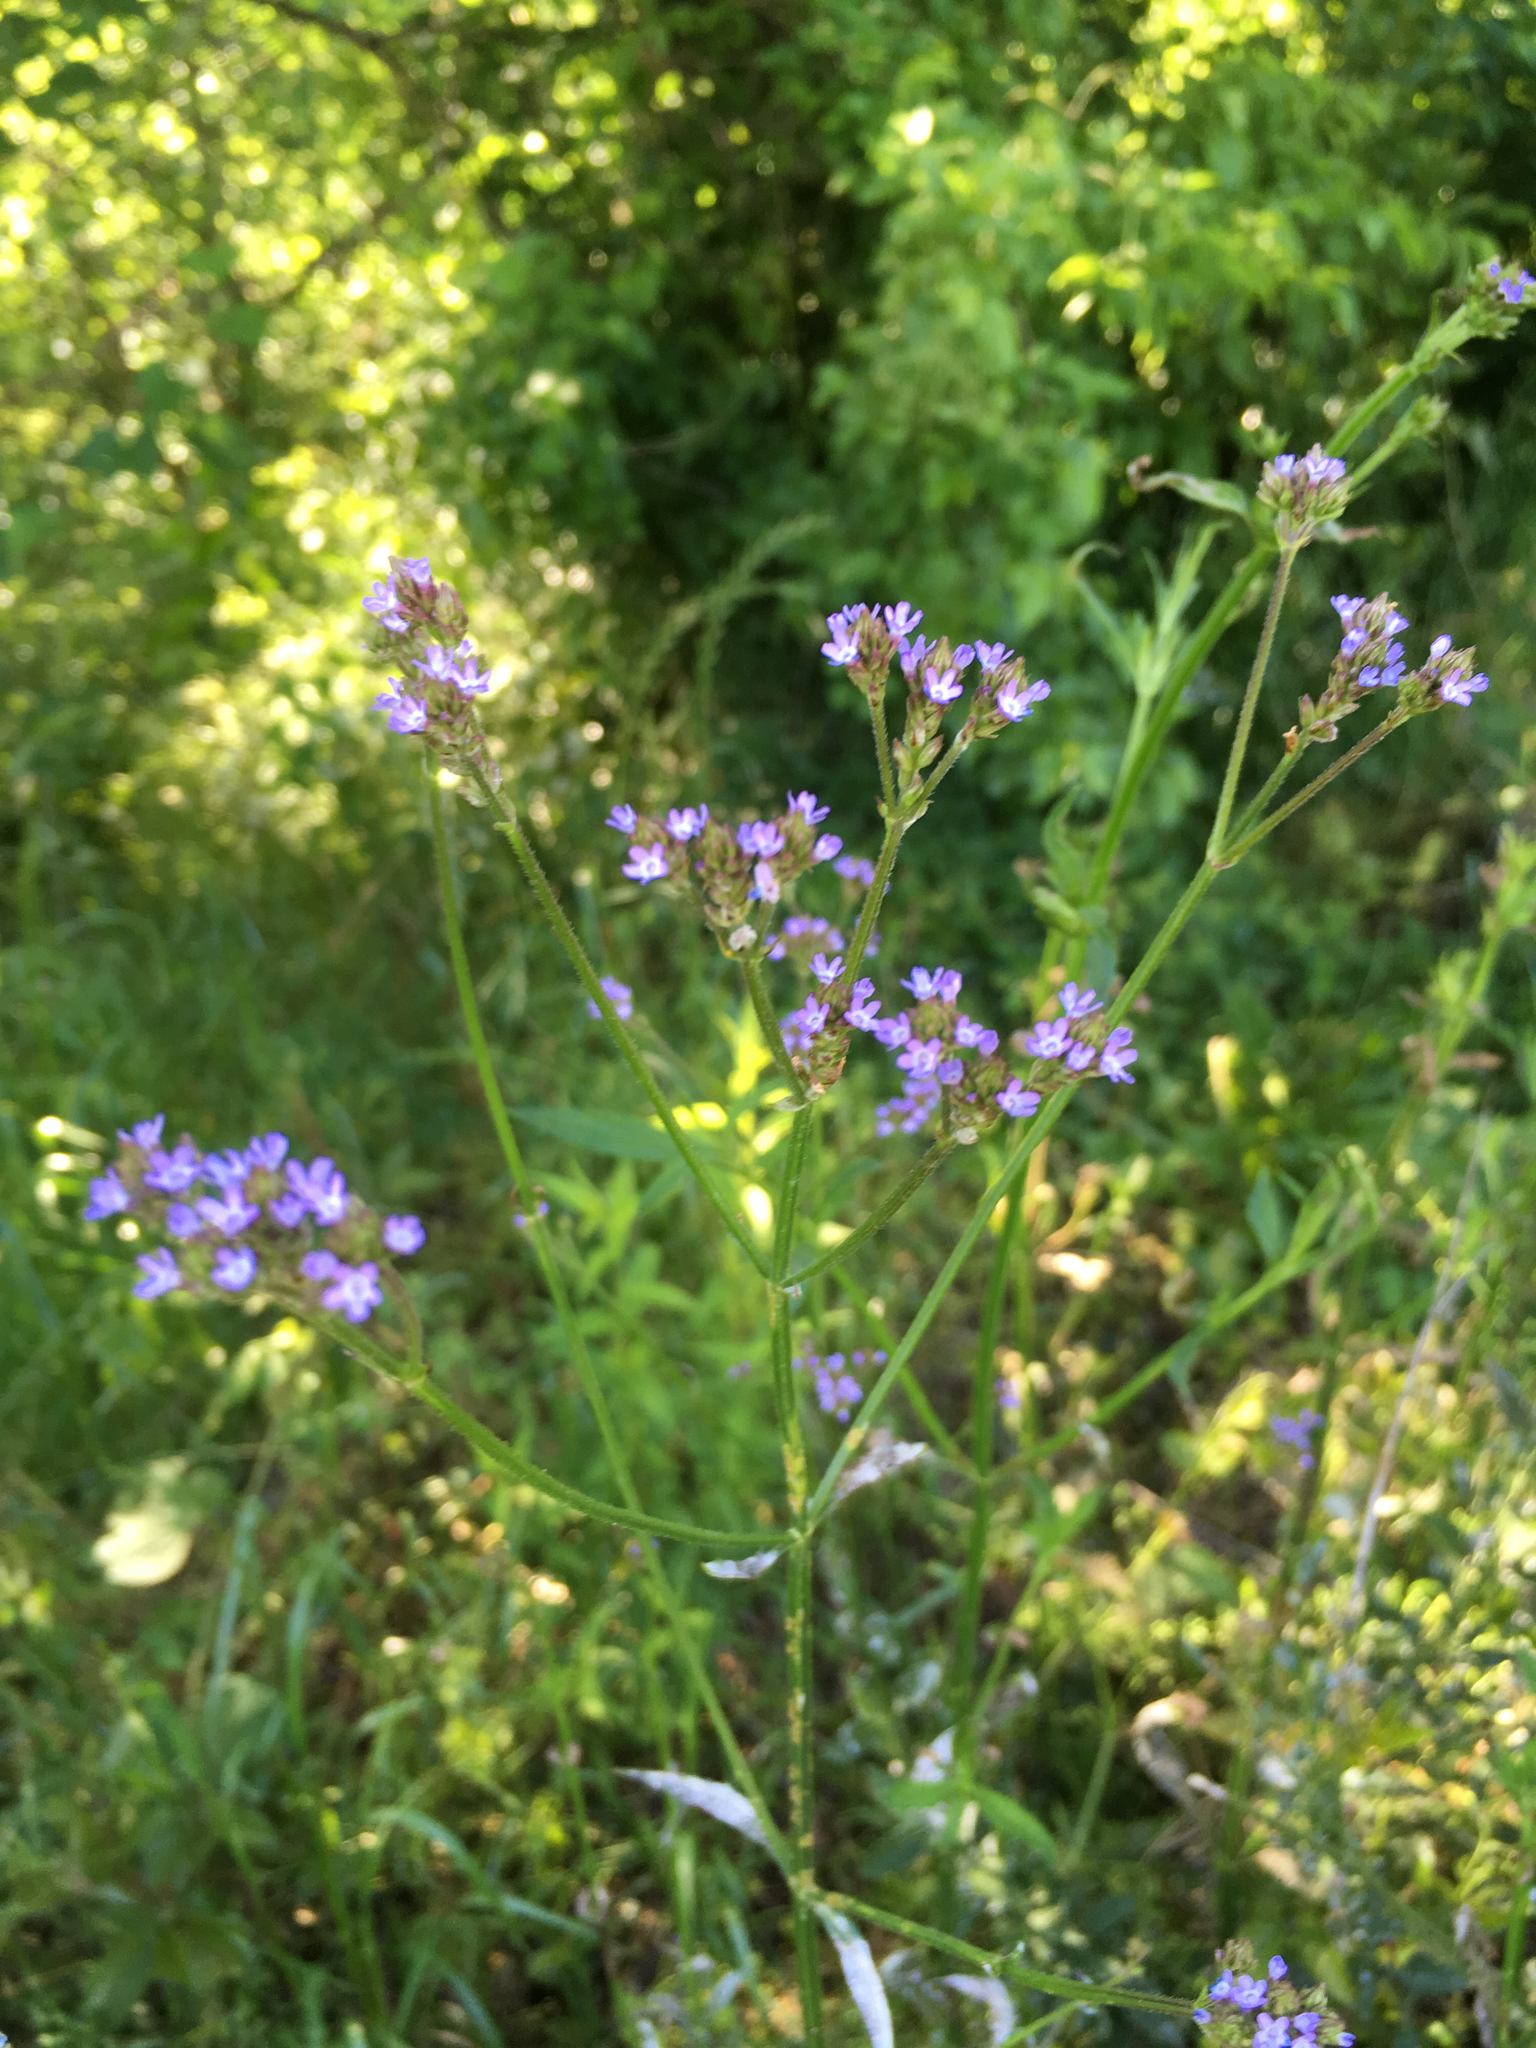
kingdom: Plantae
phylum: Tracheophyta
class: Magnoliopsida
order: Lamiales
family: Verbenaceae
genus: Verbena
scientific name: Verbena brasiliensis
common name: Brazilian vervain
